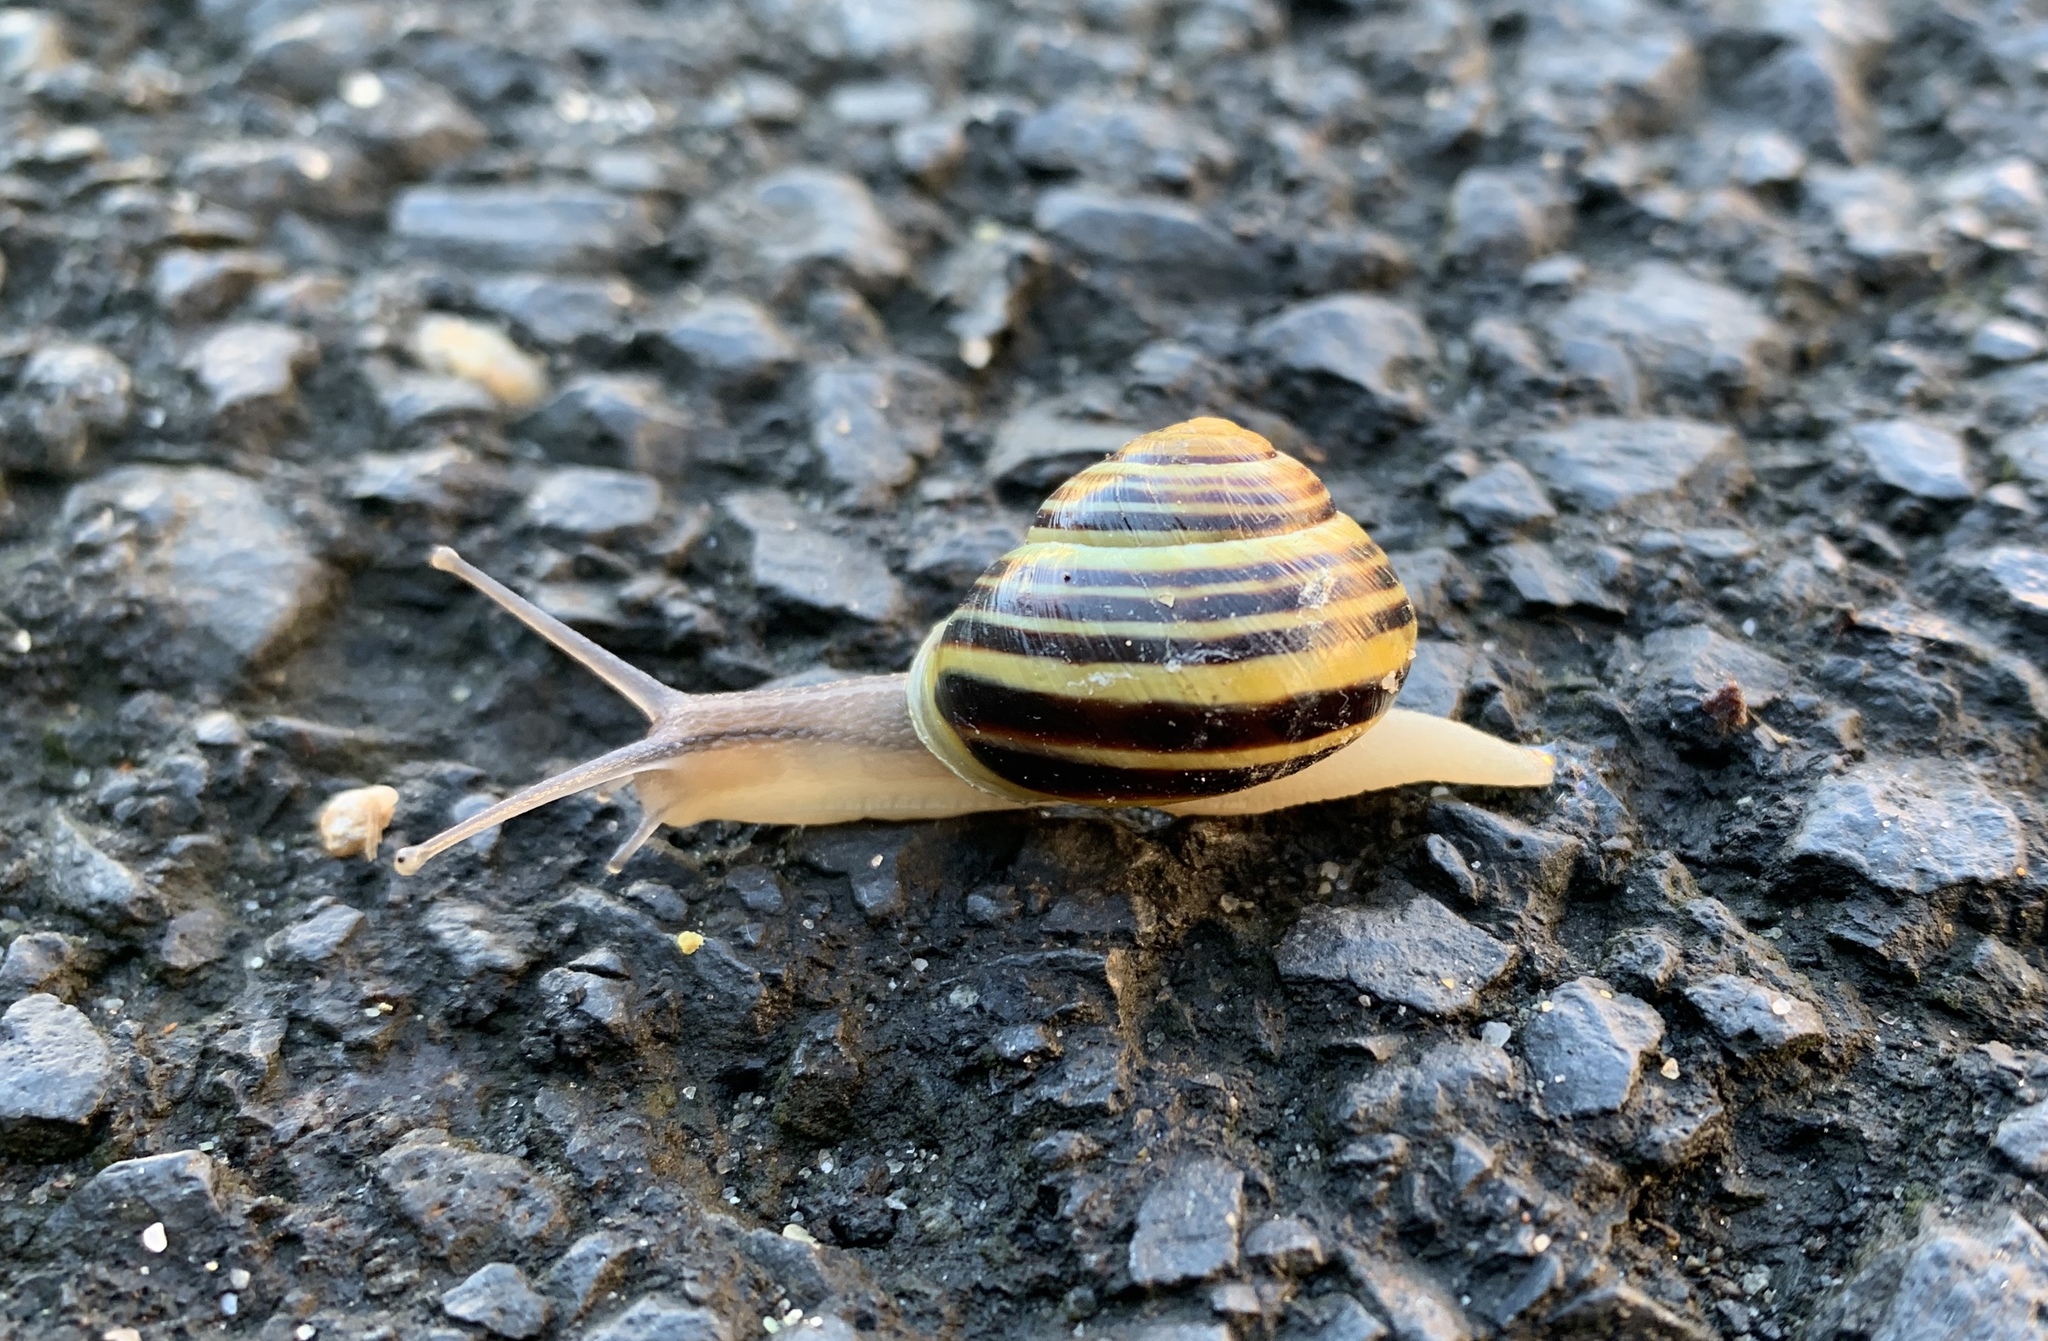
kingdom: Animalia
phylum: Mollusca
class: Gastropoda
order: Stylommatophora
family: Helicidae
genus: Cepaea
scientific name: Cepaea hortensis
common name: White-lip gardensnail
